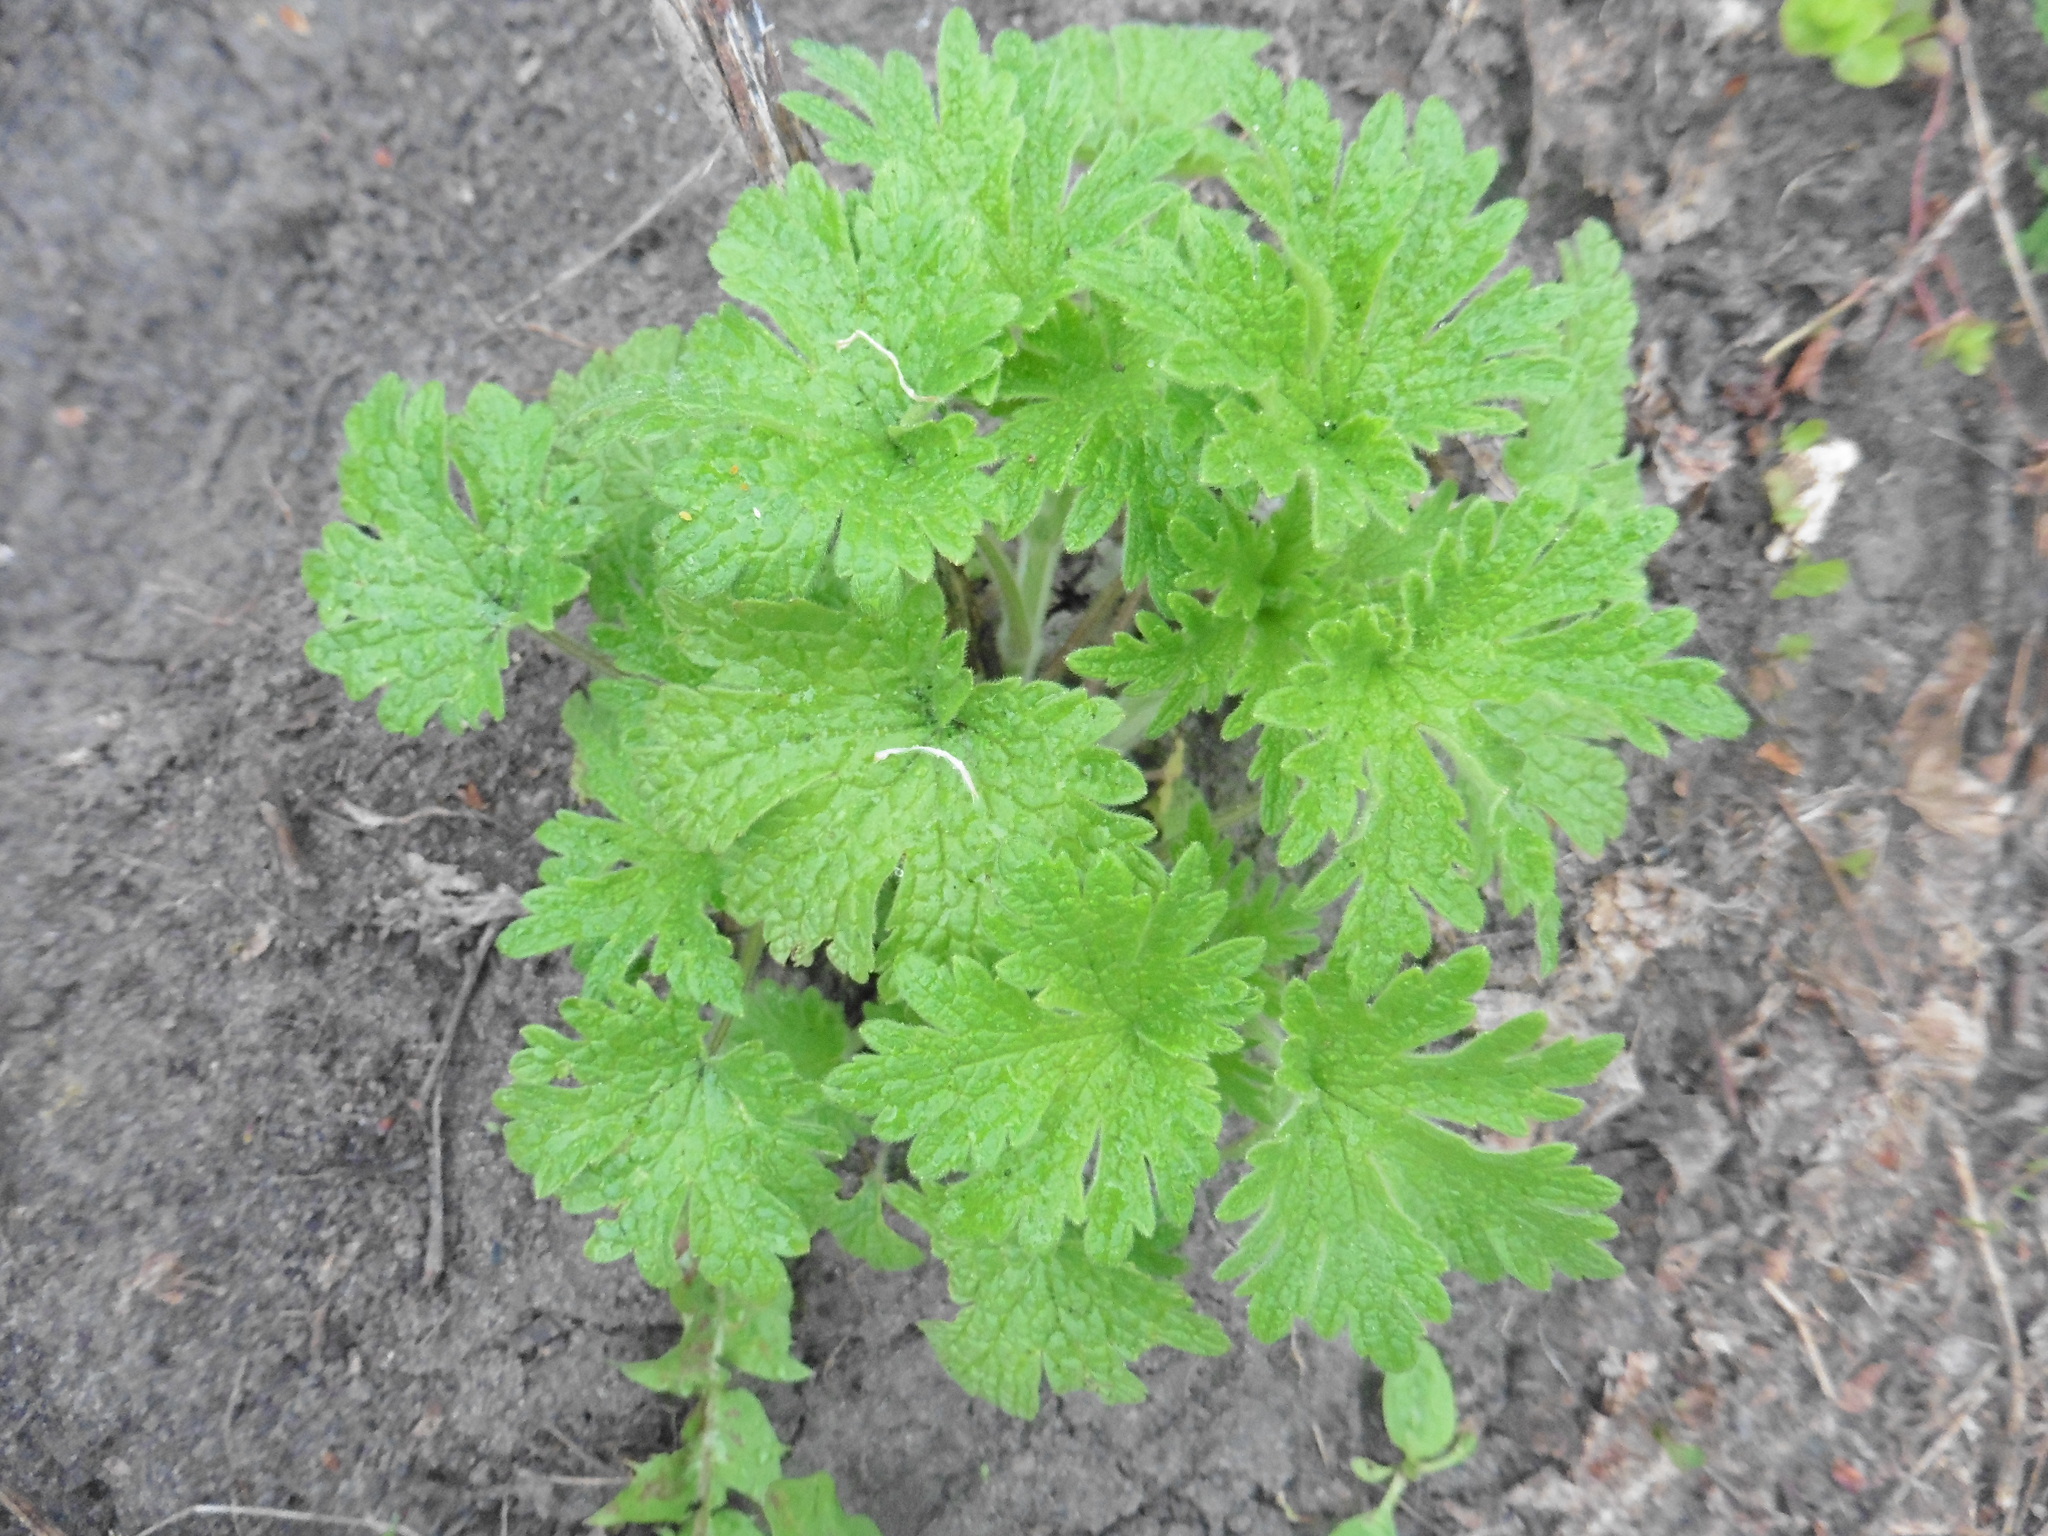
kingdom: Plantae
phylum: Tracheophyta
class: Magnoliopsida
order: Lamiales
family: Lamiaceae
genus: Leonurus
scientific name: Leonurus quinquelobatus
